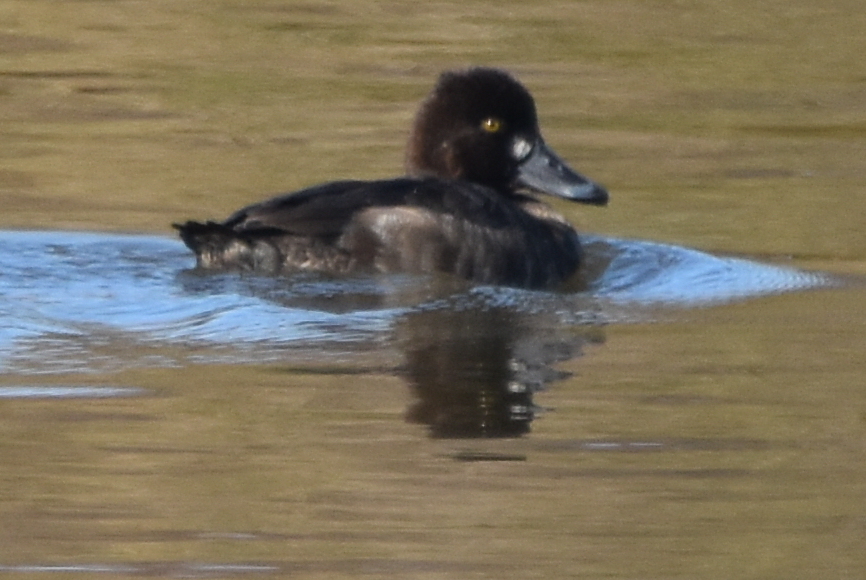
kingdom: Animalia
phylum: Chordata
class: Aves
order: Anseriformes
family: Anatidae
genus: Aythya
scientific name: Aythya affinis
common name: Lesser scaup
